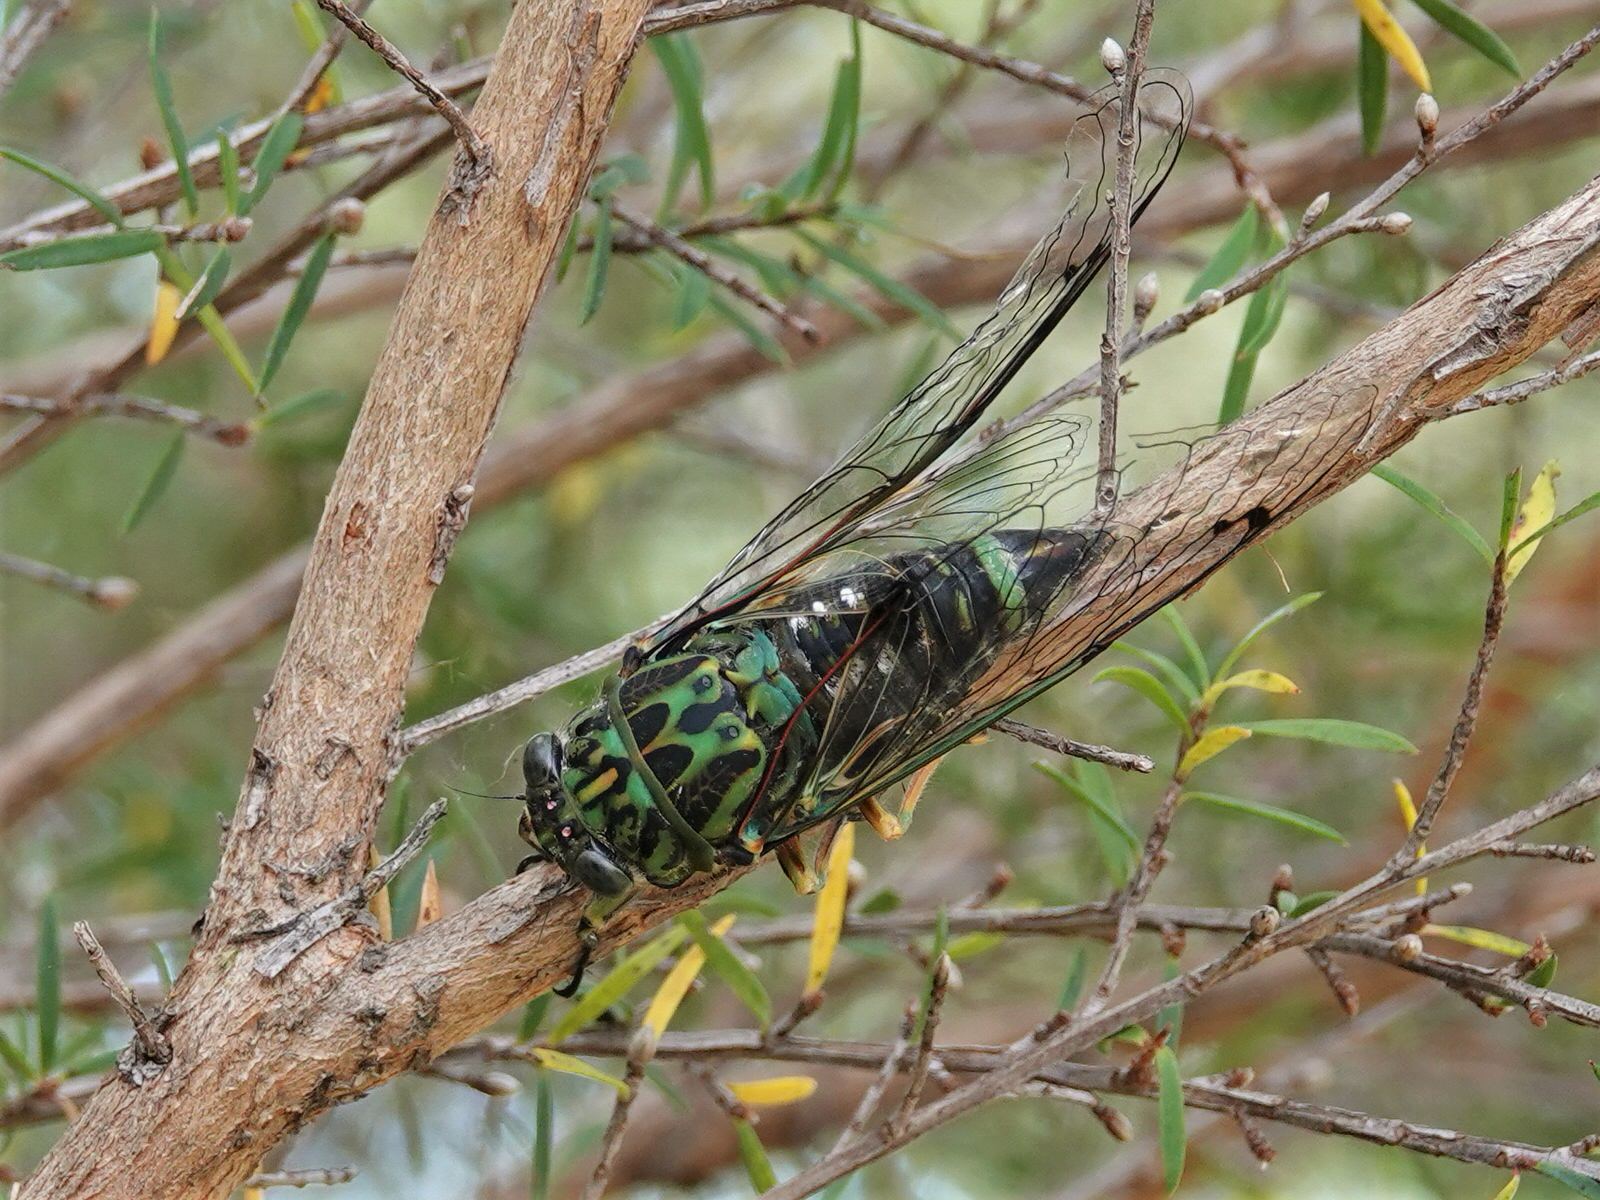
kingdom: Animalia
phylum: Arthropoda
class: Insecta
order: Hemiptera
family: Cicadidae
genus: Amphipsalta
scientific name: Amphipsalta zelandica
